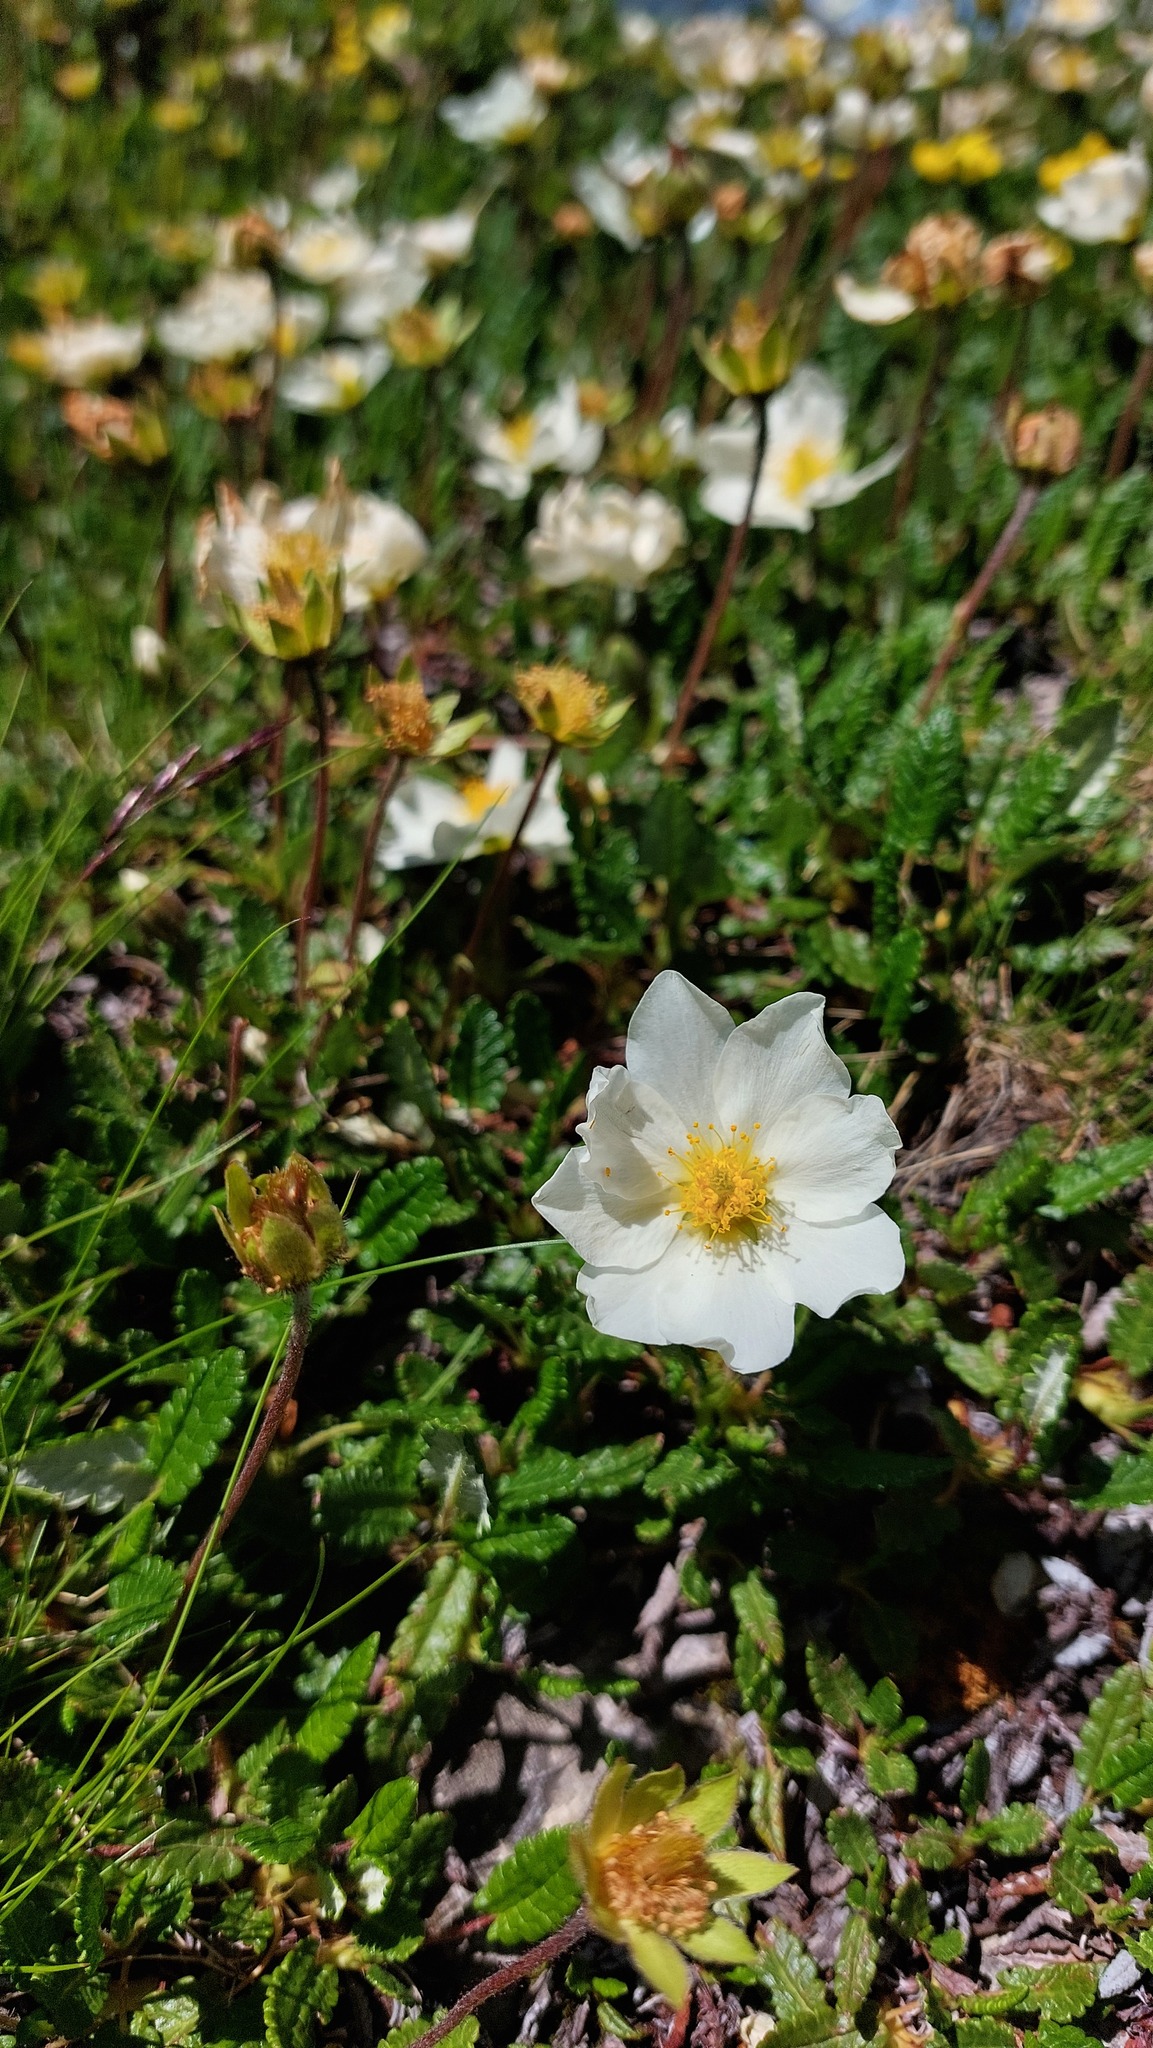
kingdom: Plantae
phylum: Tracheophyta
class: Magnoliopsida
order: Rosales
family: Rosaceae
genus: Dryas
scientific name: Dryas octopetala
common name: Eight-petal mountain-avens
